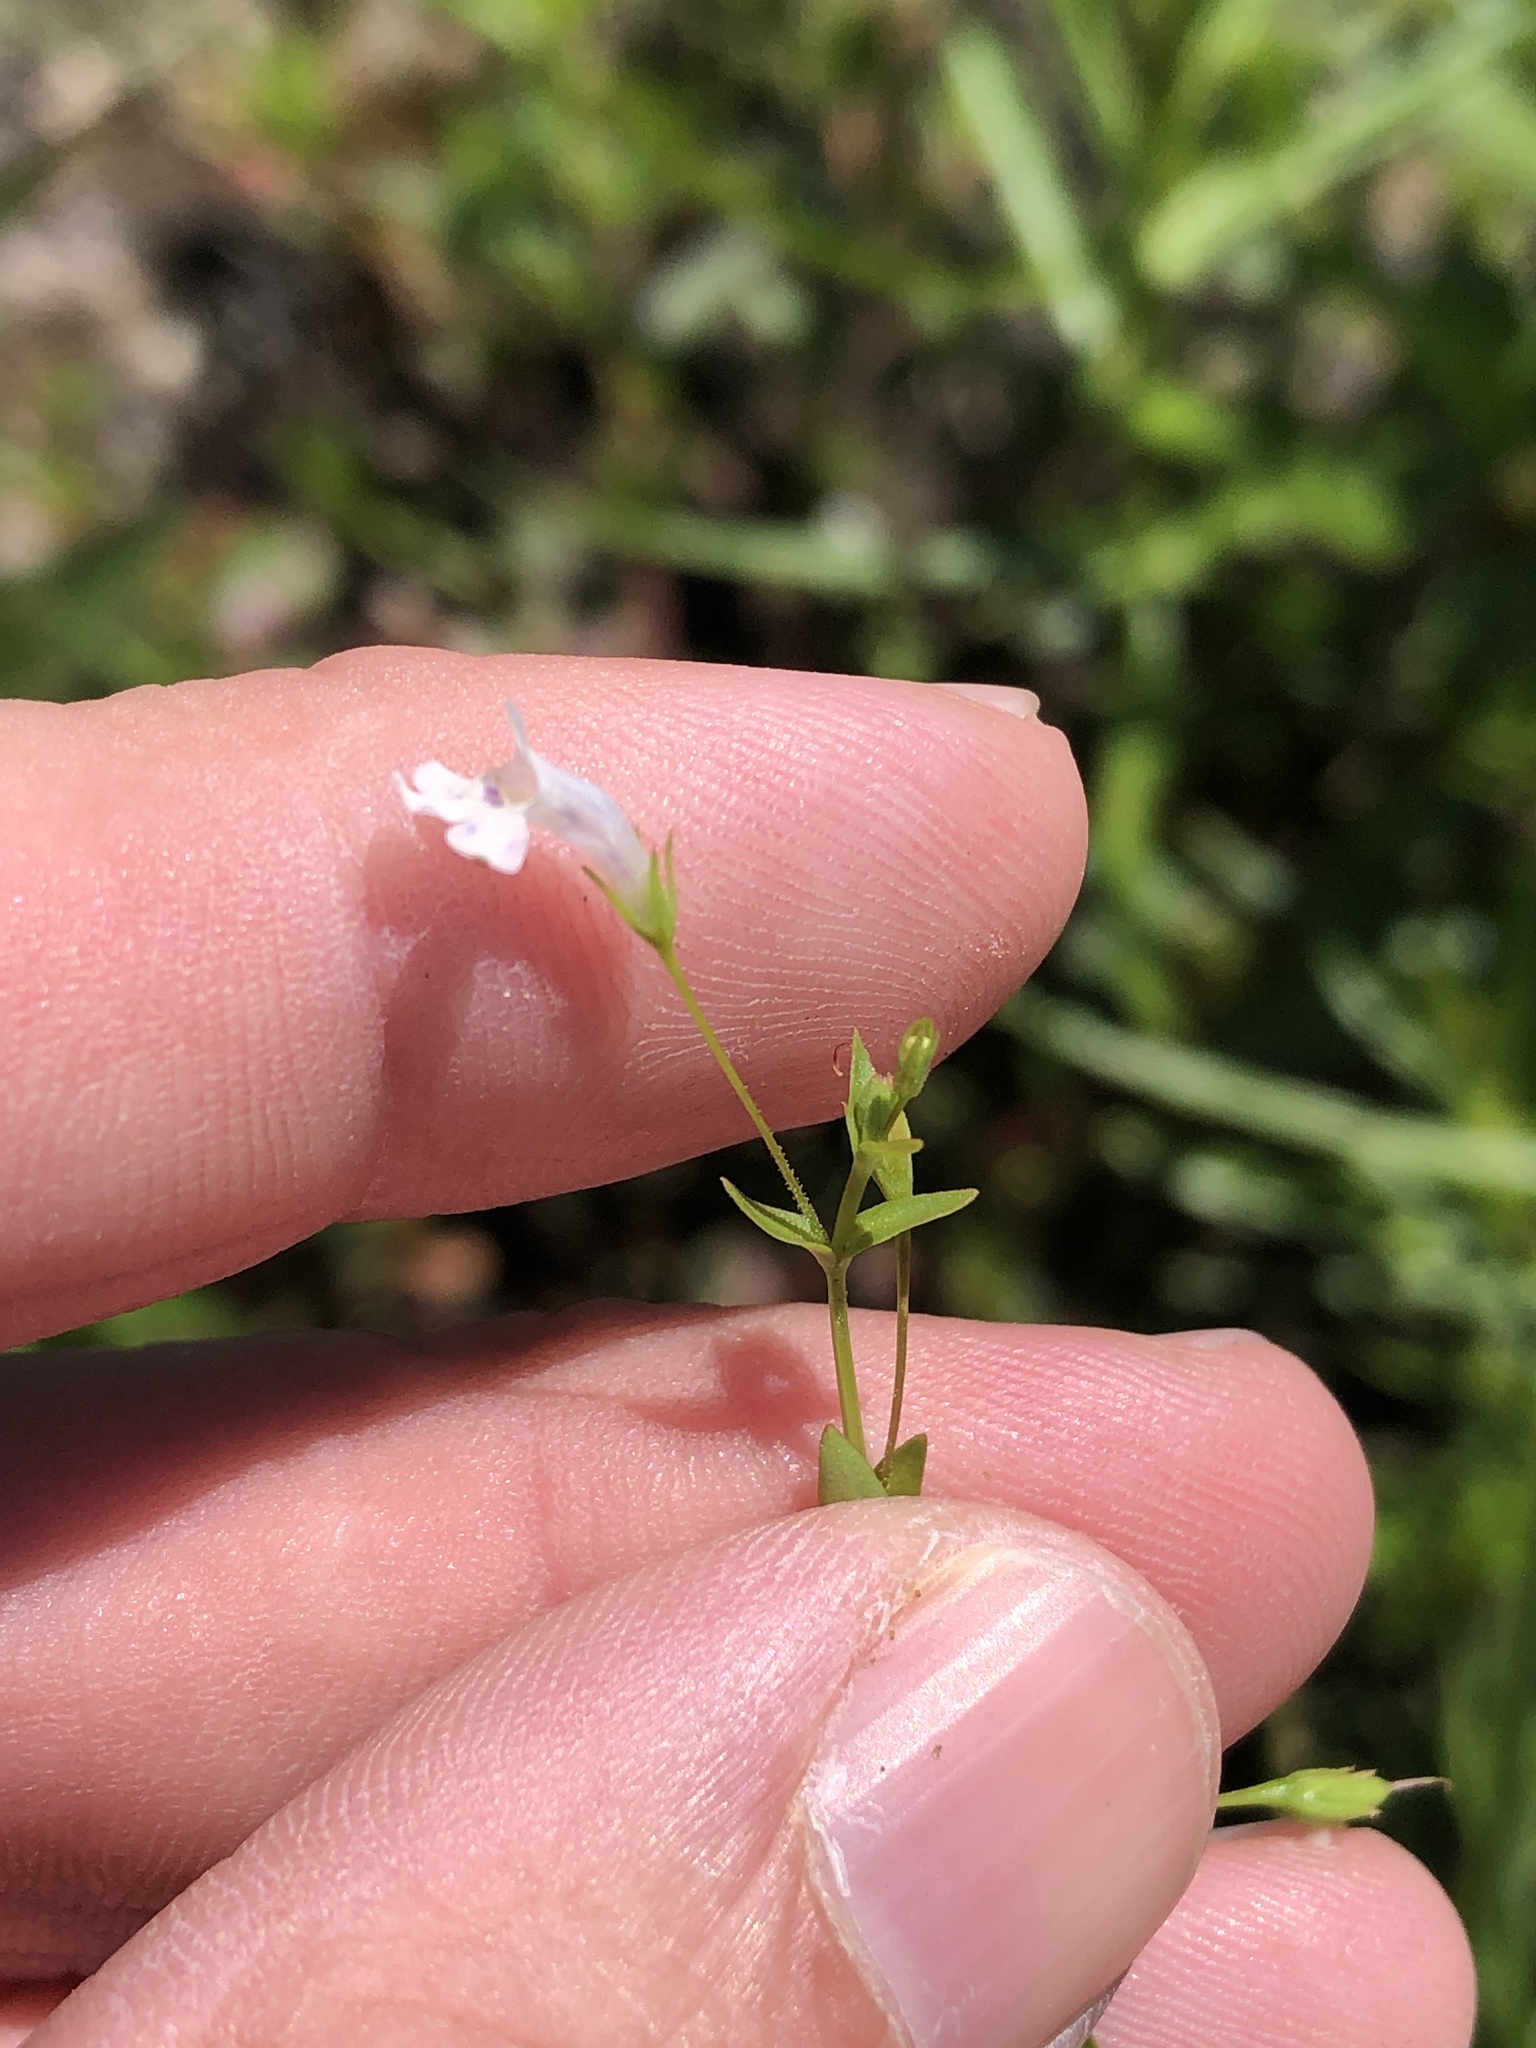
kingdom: Plantae
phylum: Tracheophyta
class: Magnoliopsida
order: Lamiales
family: Linderniaceae
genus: Lindernia
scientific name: Lindernia dubia
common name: Annual false pimpernel
